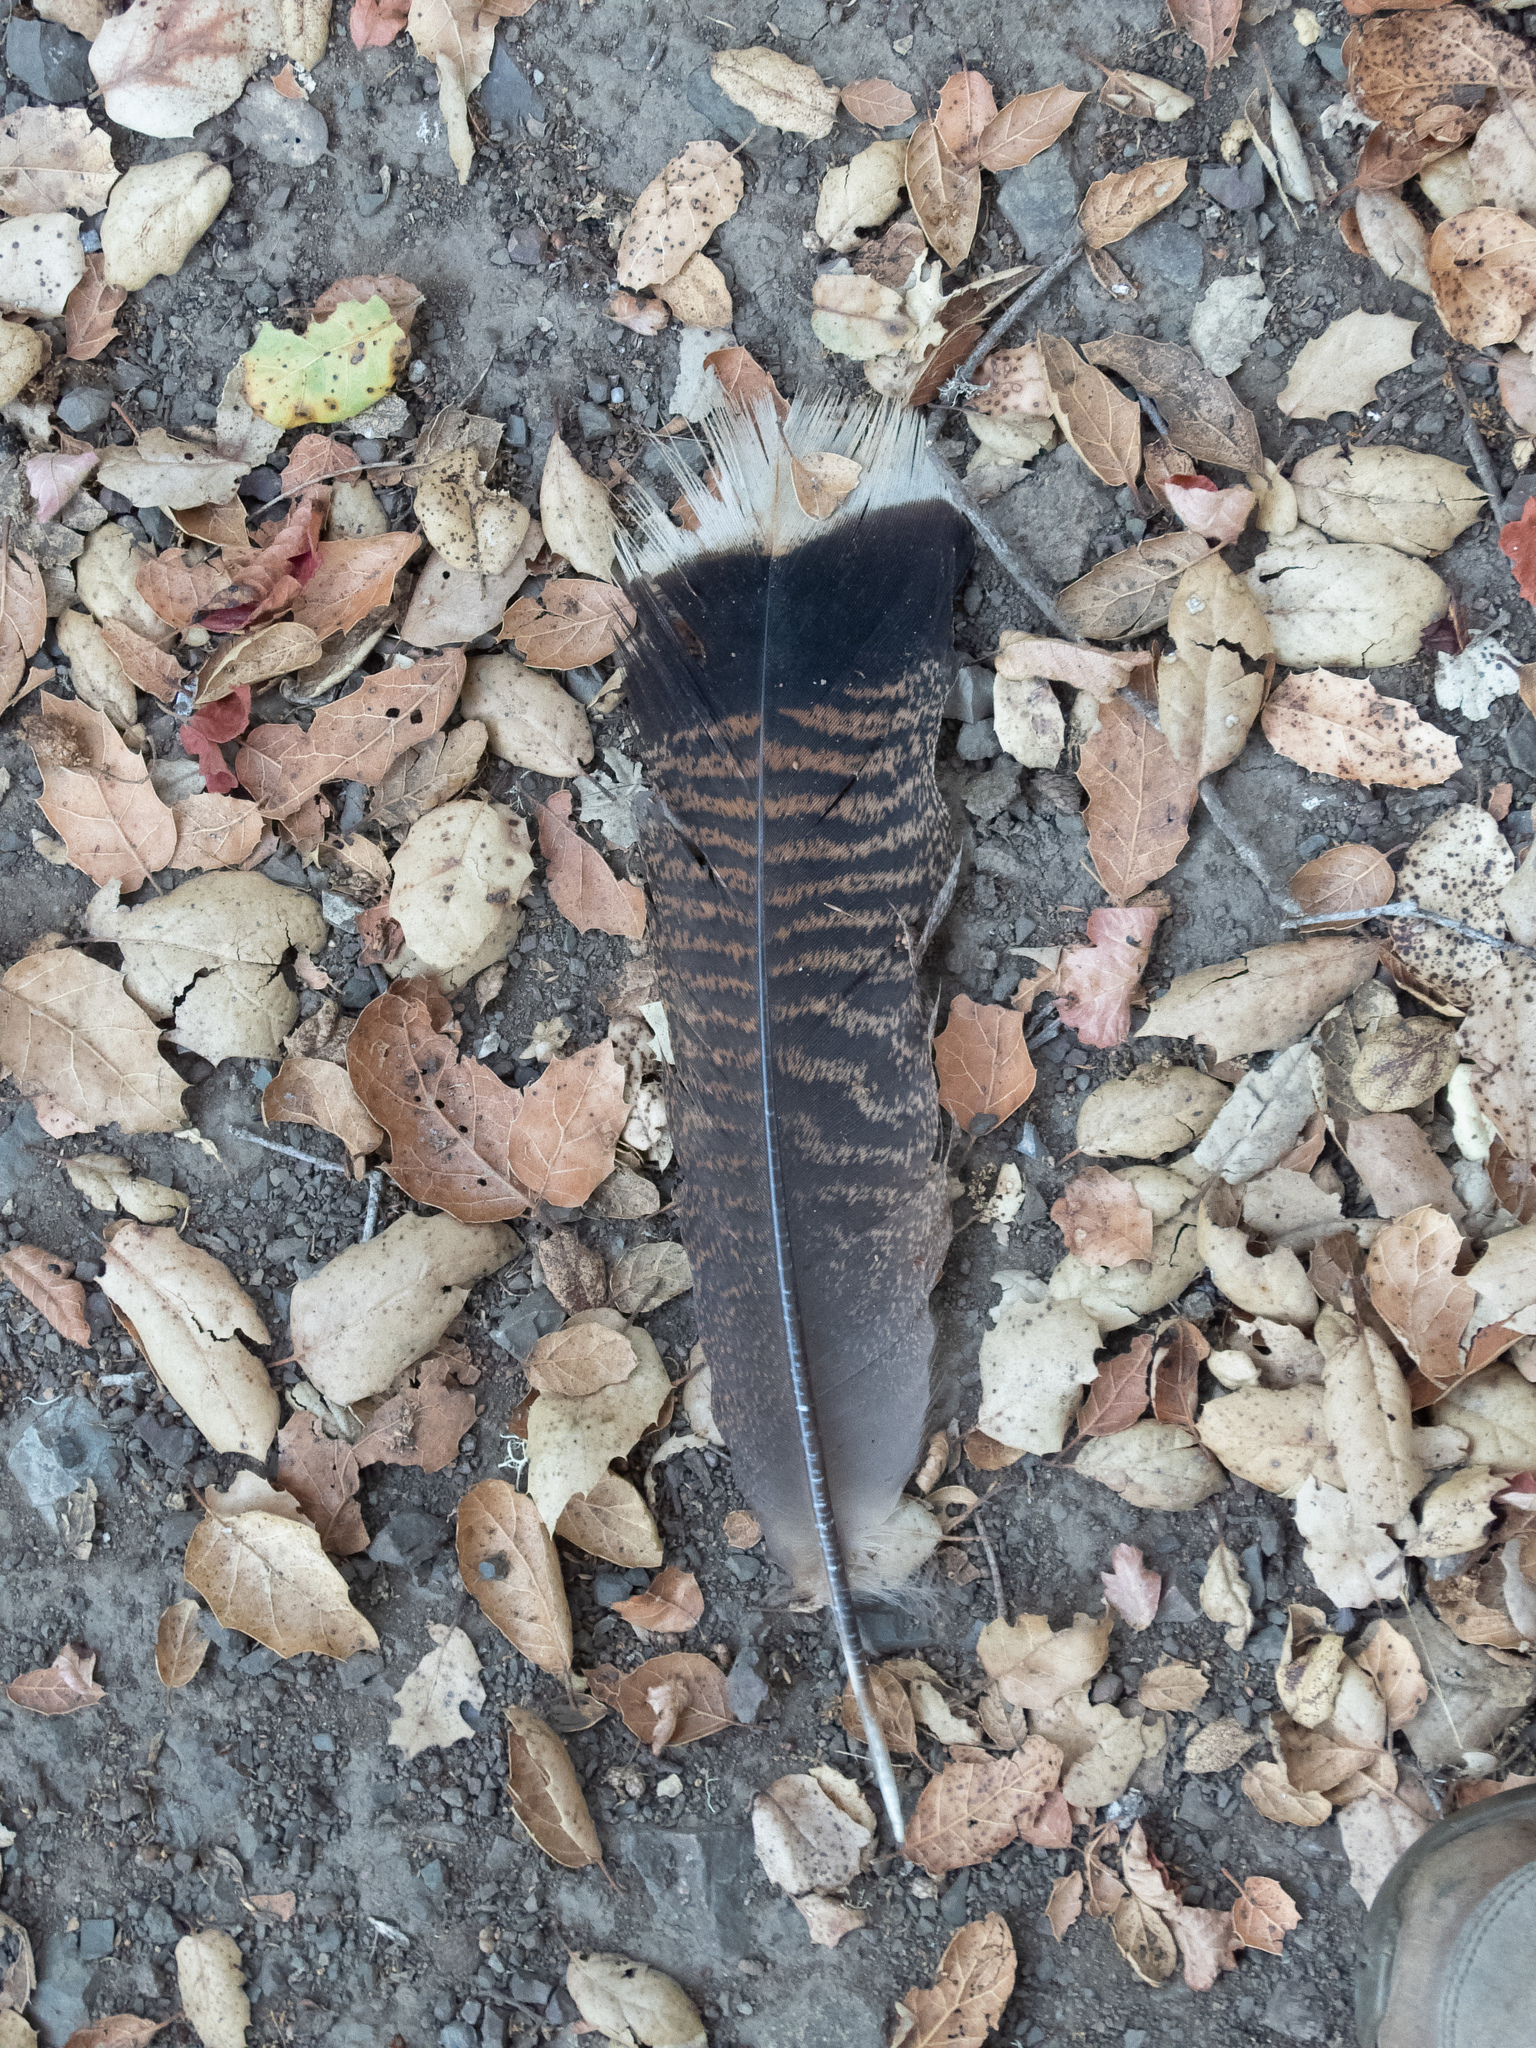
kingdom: Animalia
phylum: Chordata
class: Aves
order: Galliformes
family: Phasianidae
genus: Meleagris
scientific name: Meleagris gallopavo
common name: Wild turkey
